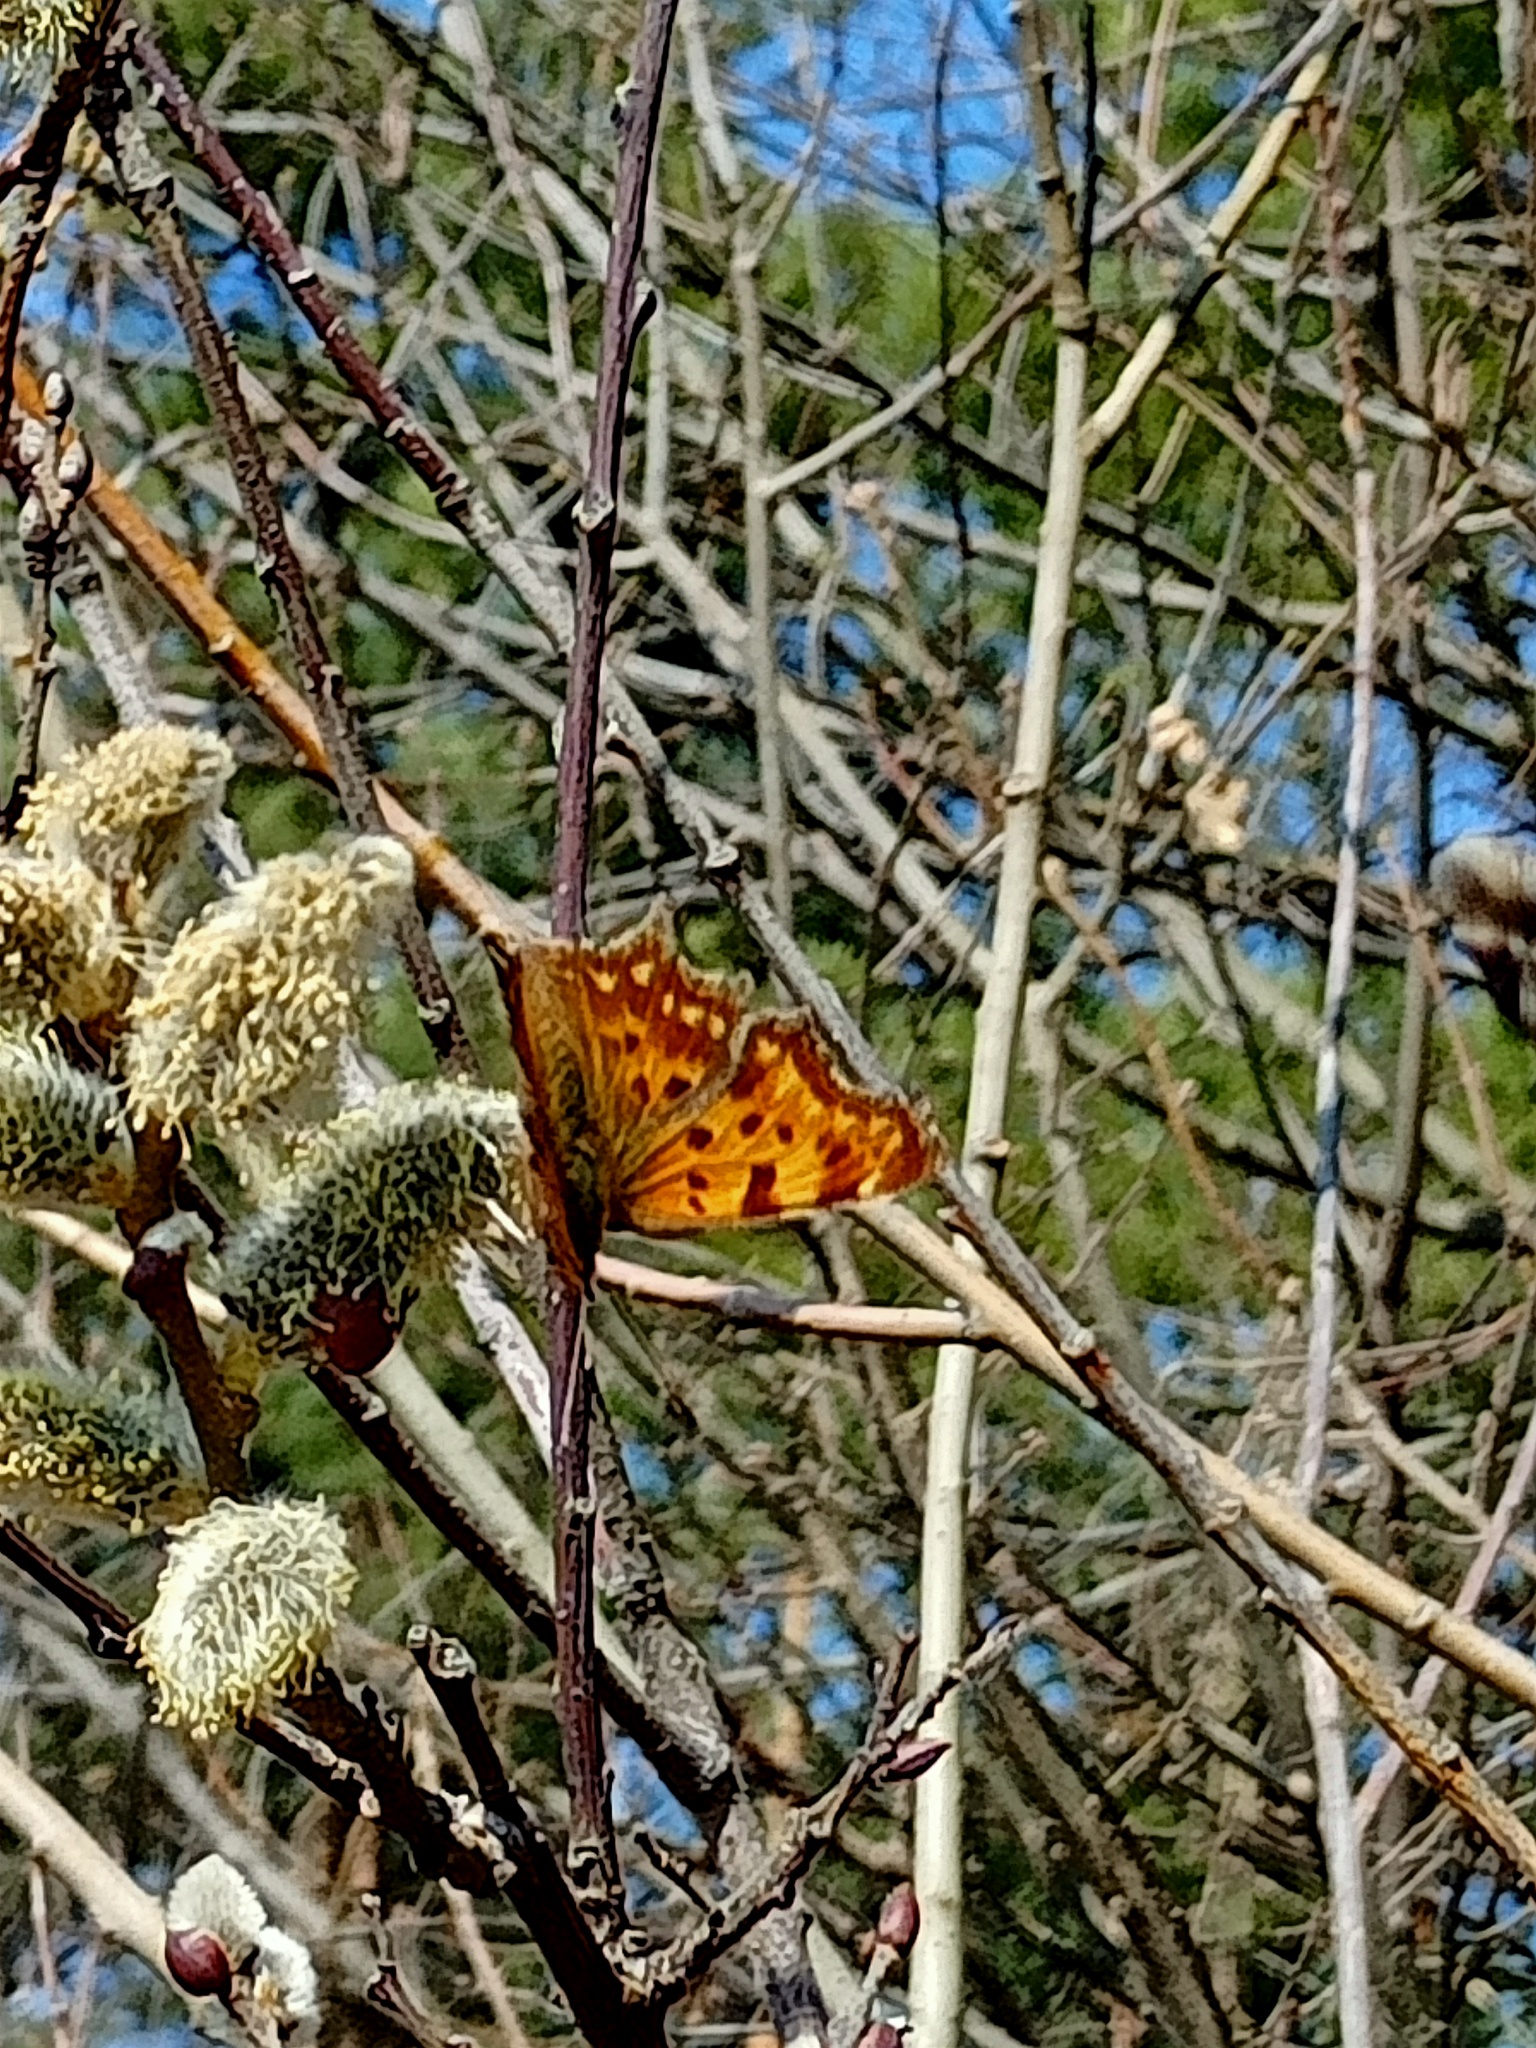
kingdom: Animalia
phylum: Arthropoda
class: Insecta
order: Lepidoptera
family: Nymphalidae
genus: Polygonia
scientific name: Polygonia c-album
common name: Comma
